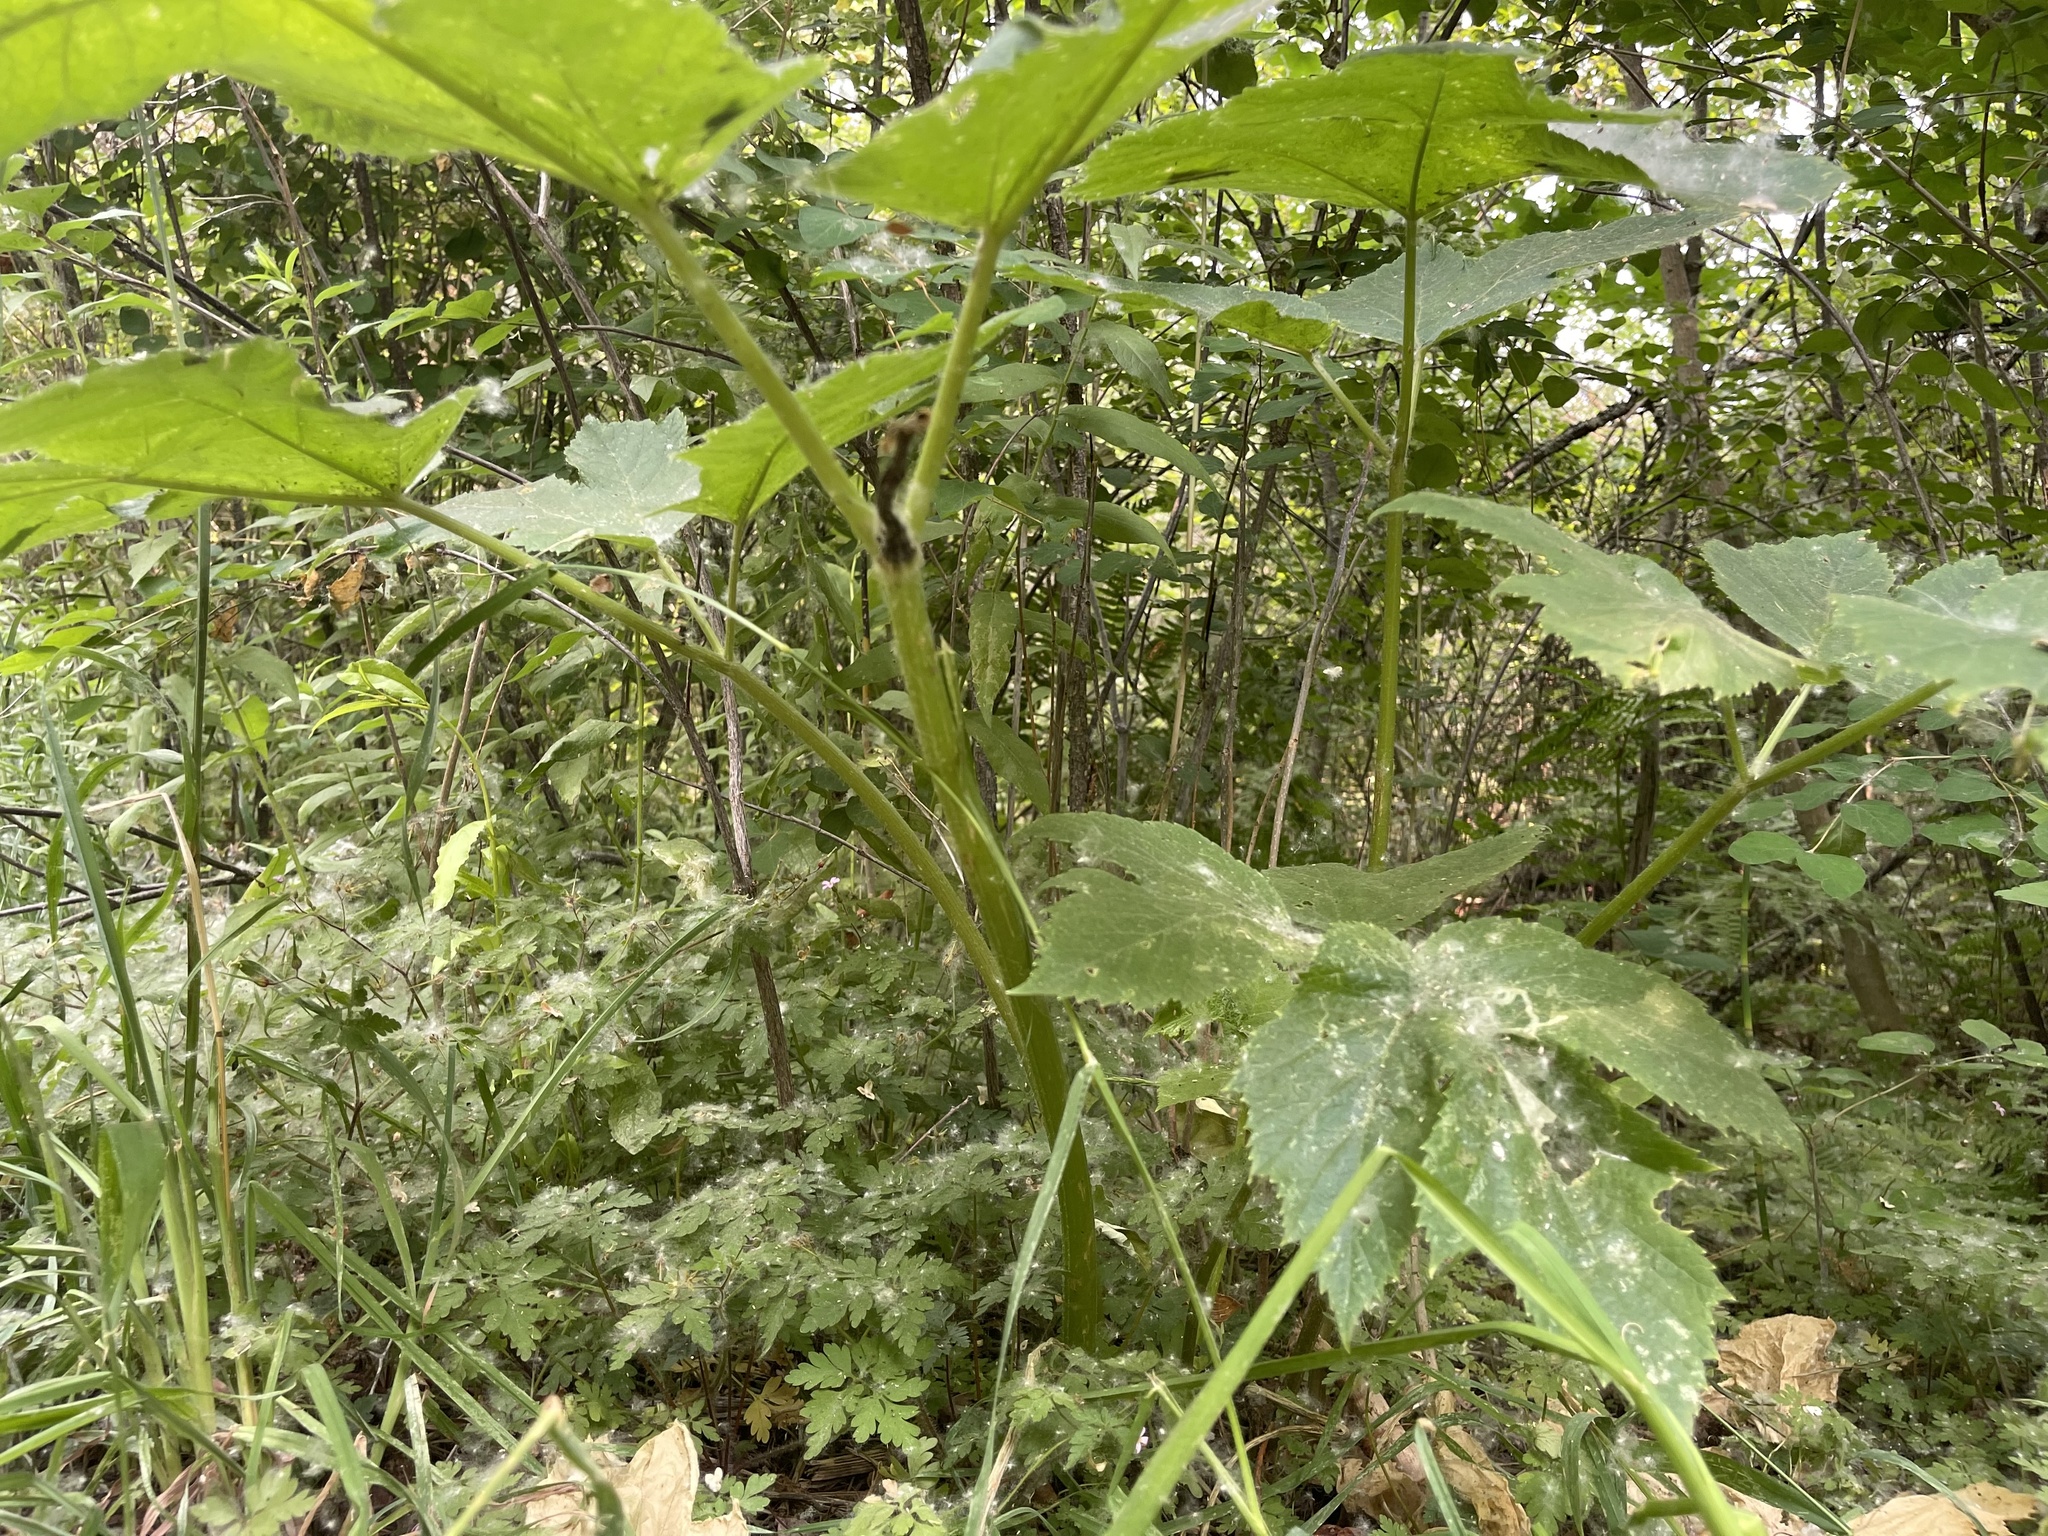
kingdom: Plantae
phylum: Tracheophyta
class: Magnoliopsida
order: Apiales
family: Apiaceae
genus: Heracleum
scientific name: Heracleum maximum
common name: American cow parsnip
